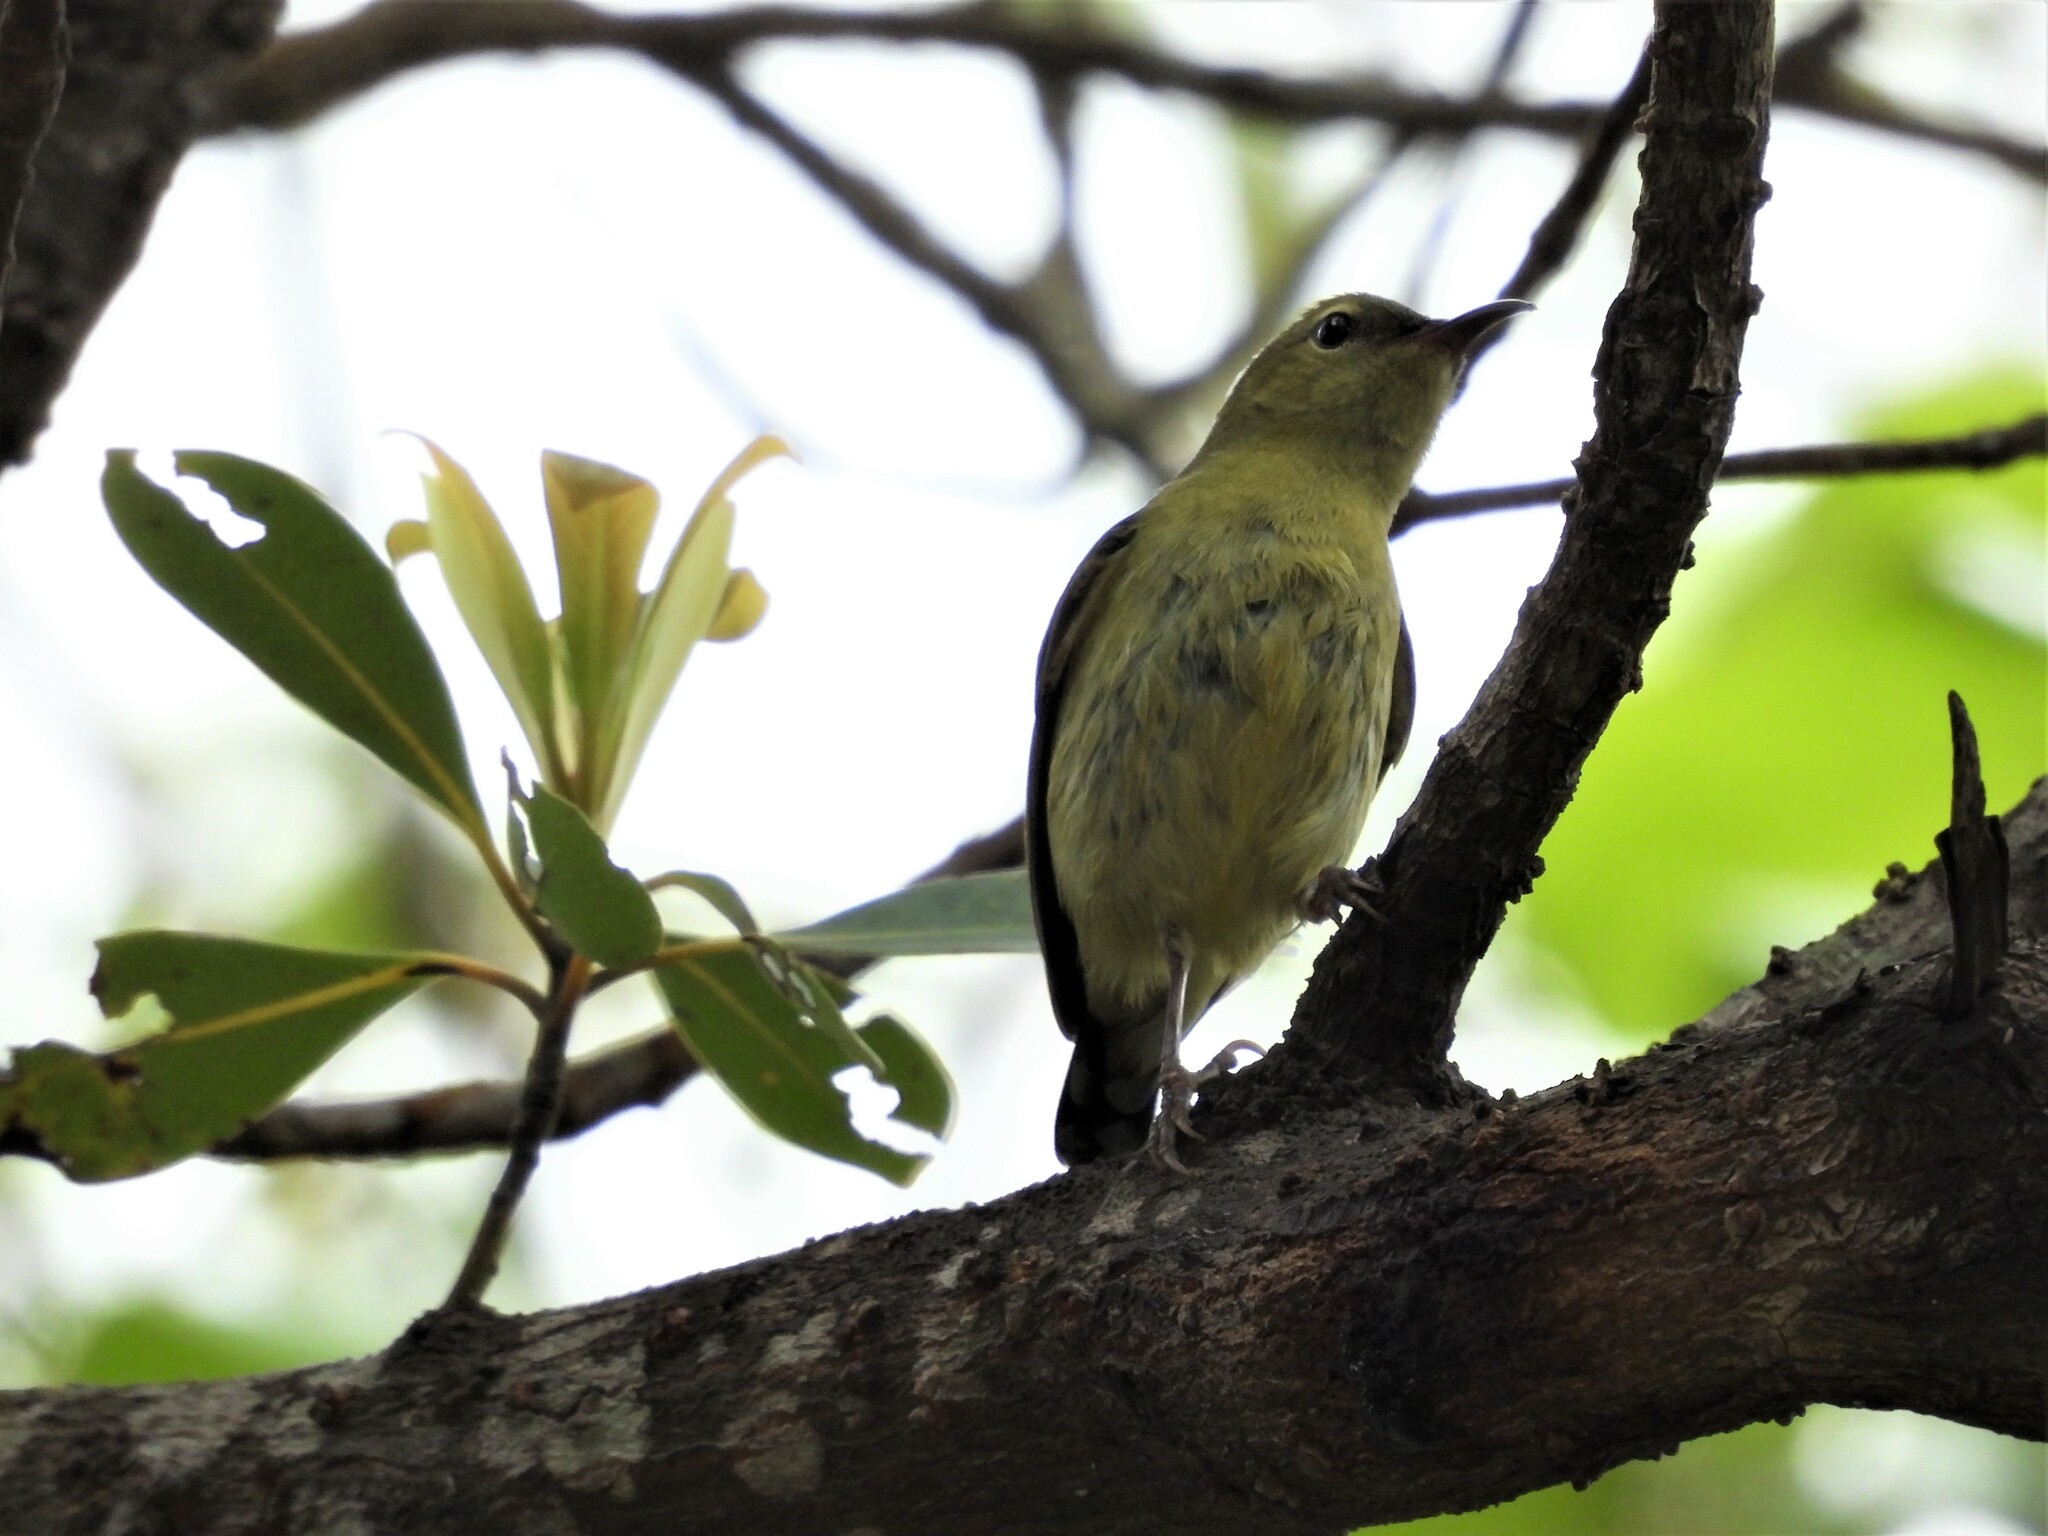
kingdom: Animalia
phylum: Chordata
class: Aves
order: Passeriformes
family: Nectariniidae
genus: Aethopyga
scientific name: Aethopyga christinae
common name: Fork-tailed sunbird
